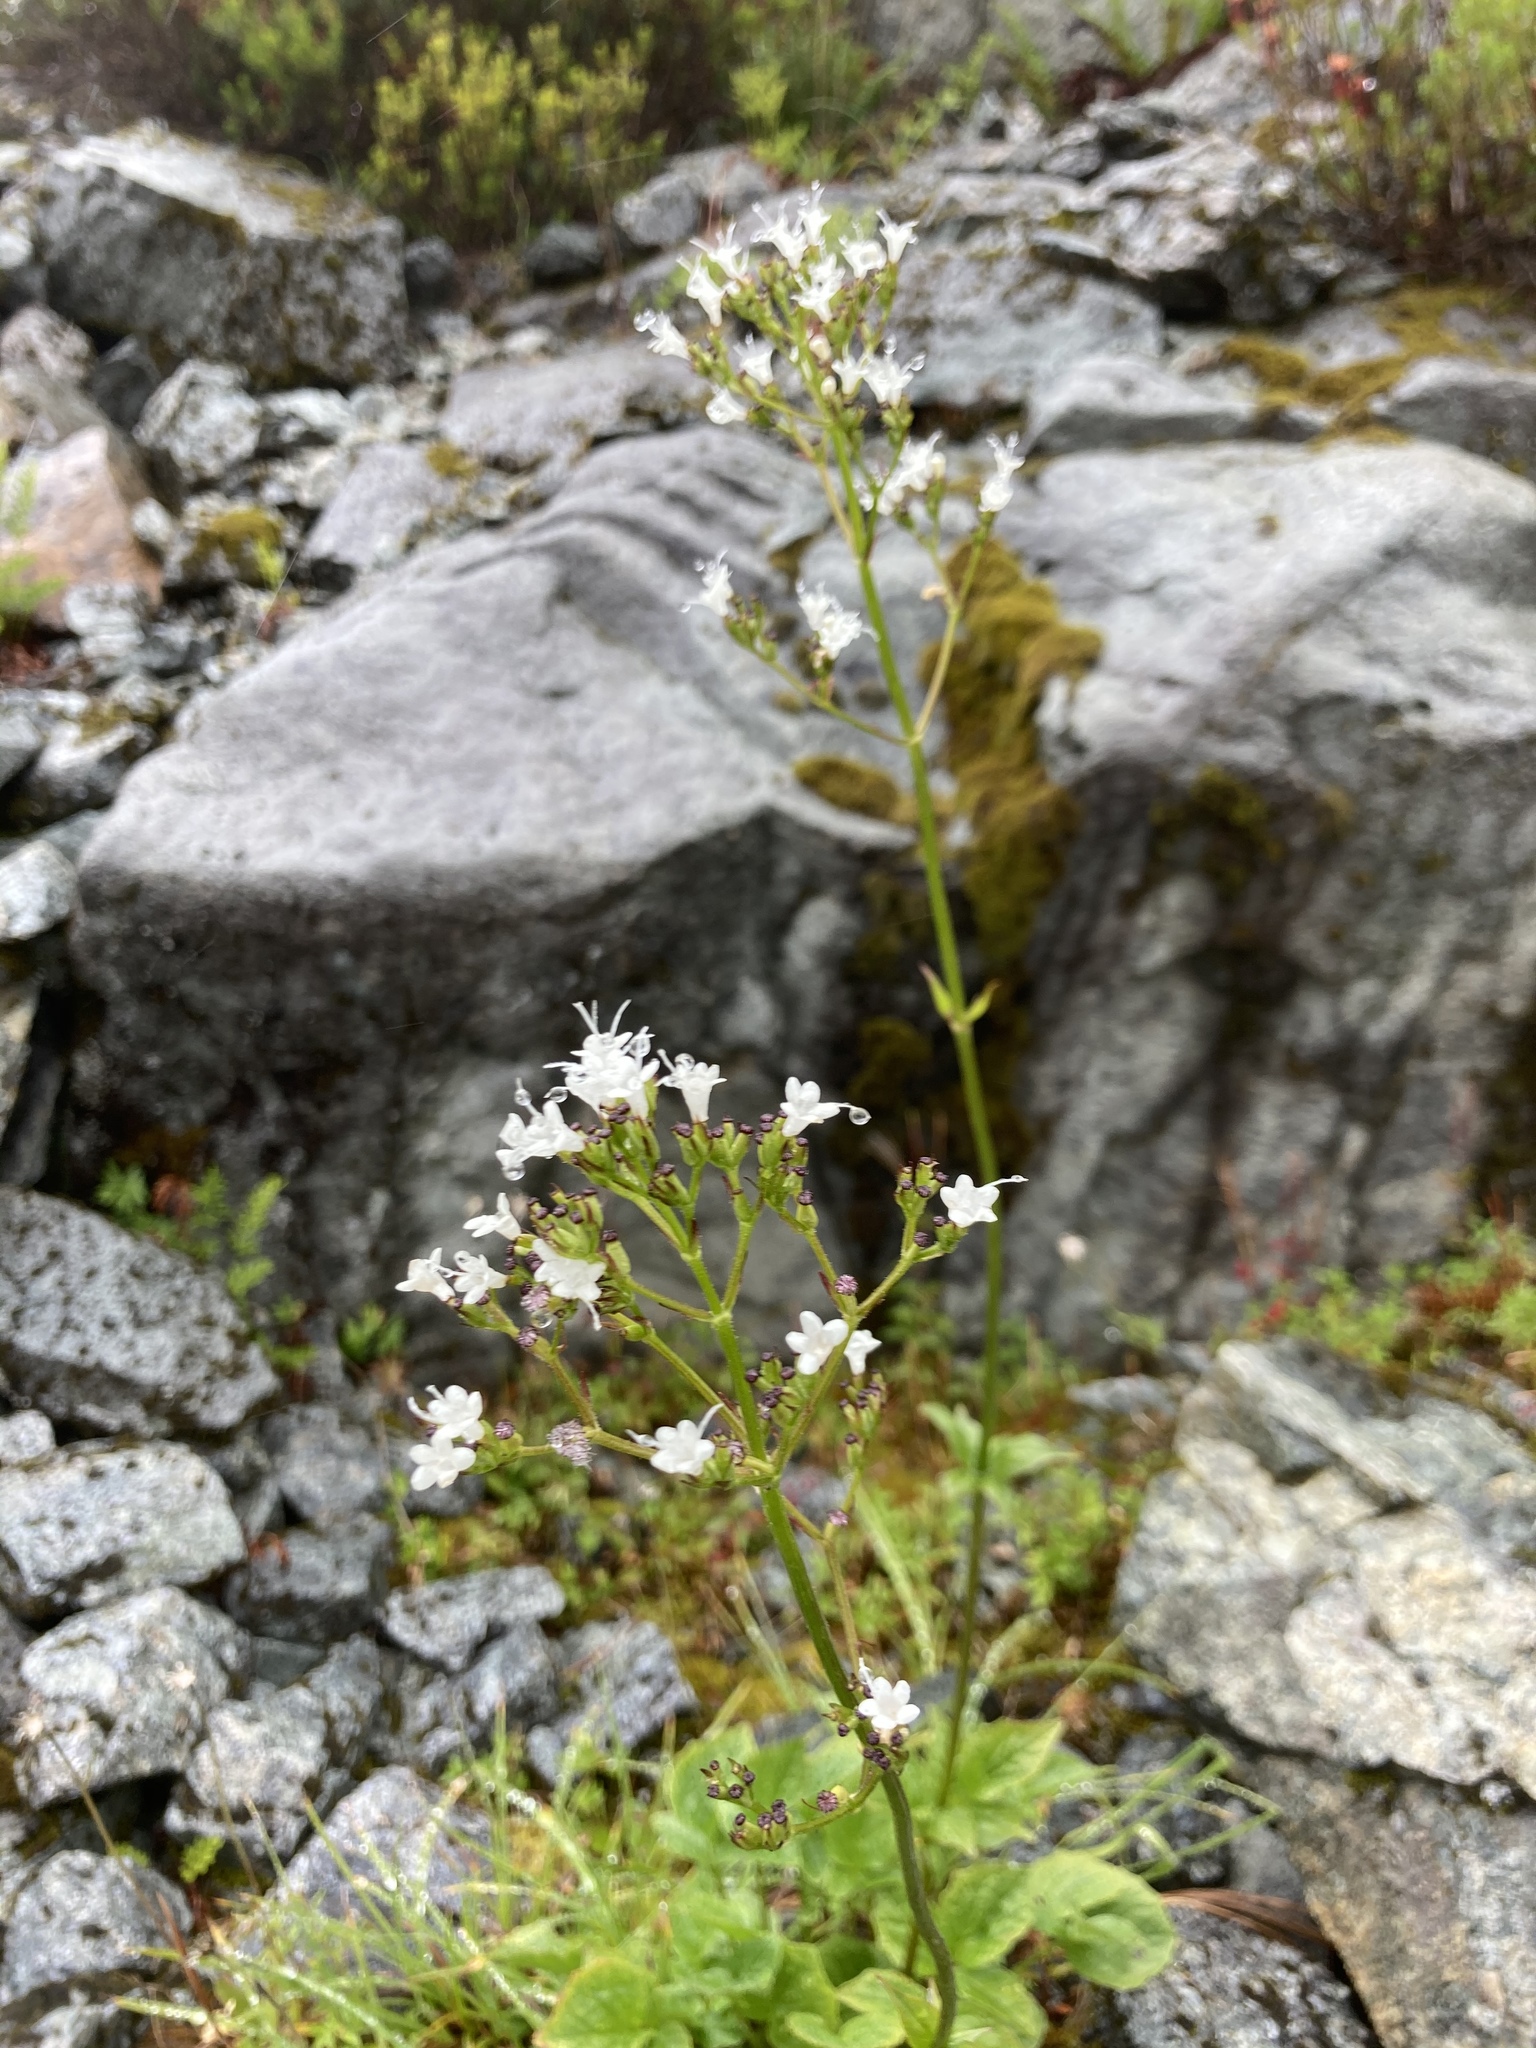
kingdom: Plantae
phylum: Tracheophyta
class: Magnoliopsida
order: Dipsacales
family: Caprifoliaceae
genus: Valeriana
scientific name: Valeriana sitchensis
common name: Pacific valerian
